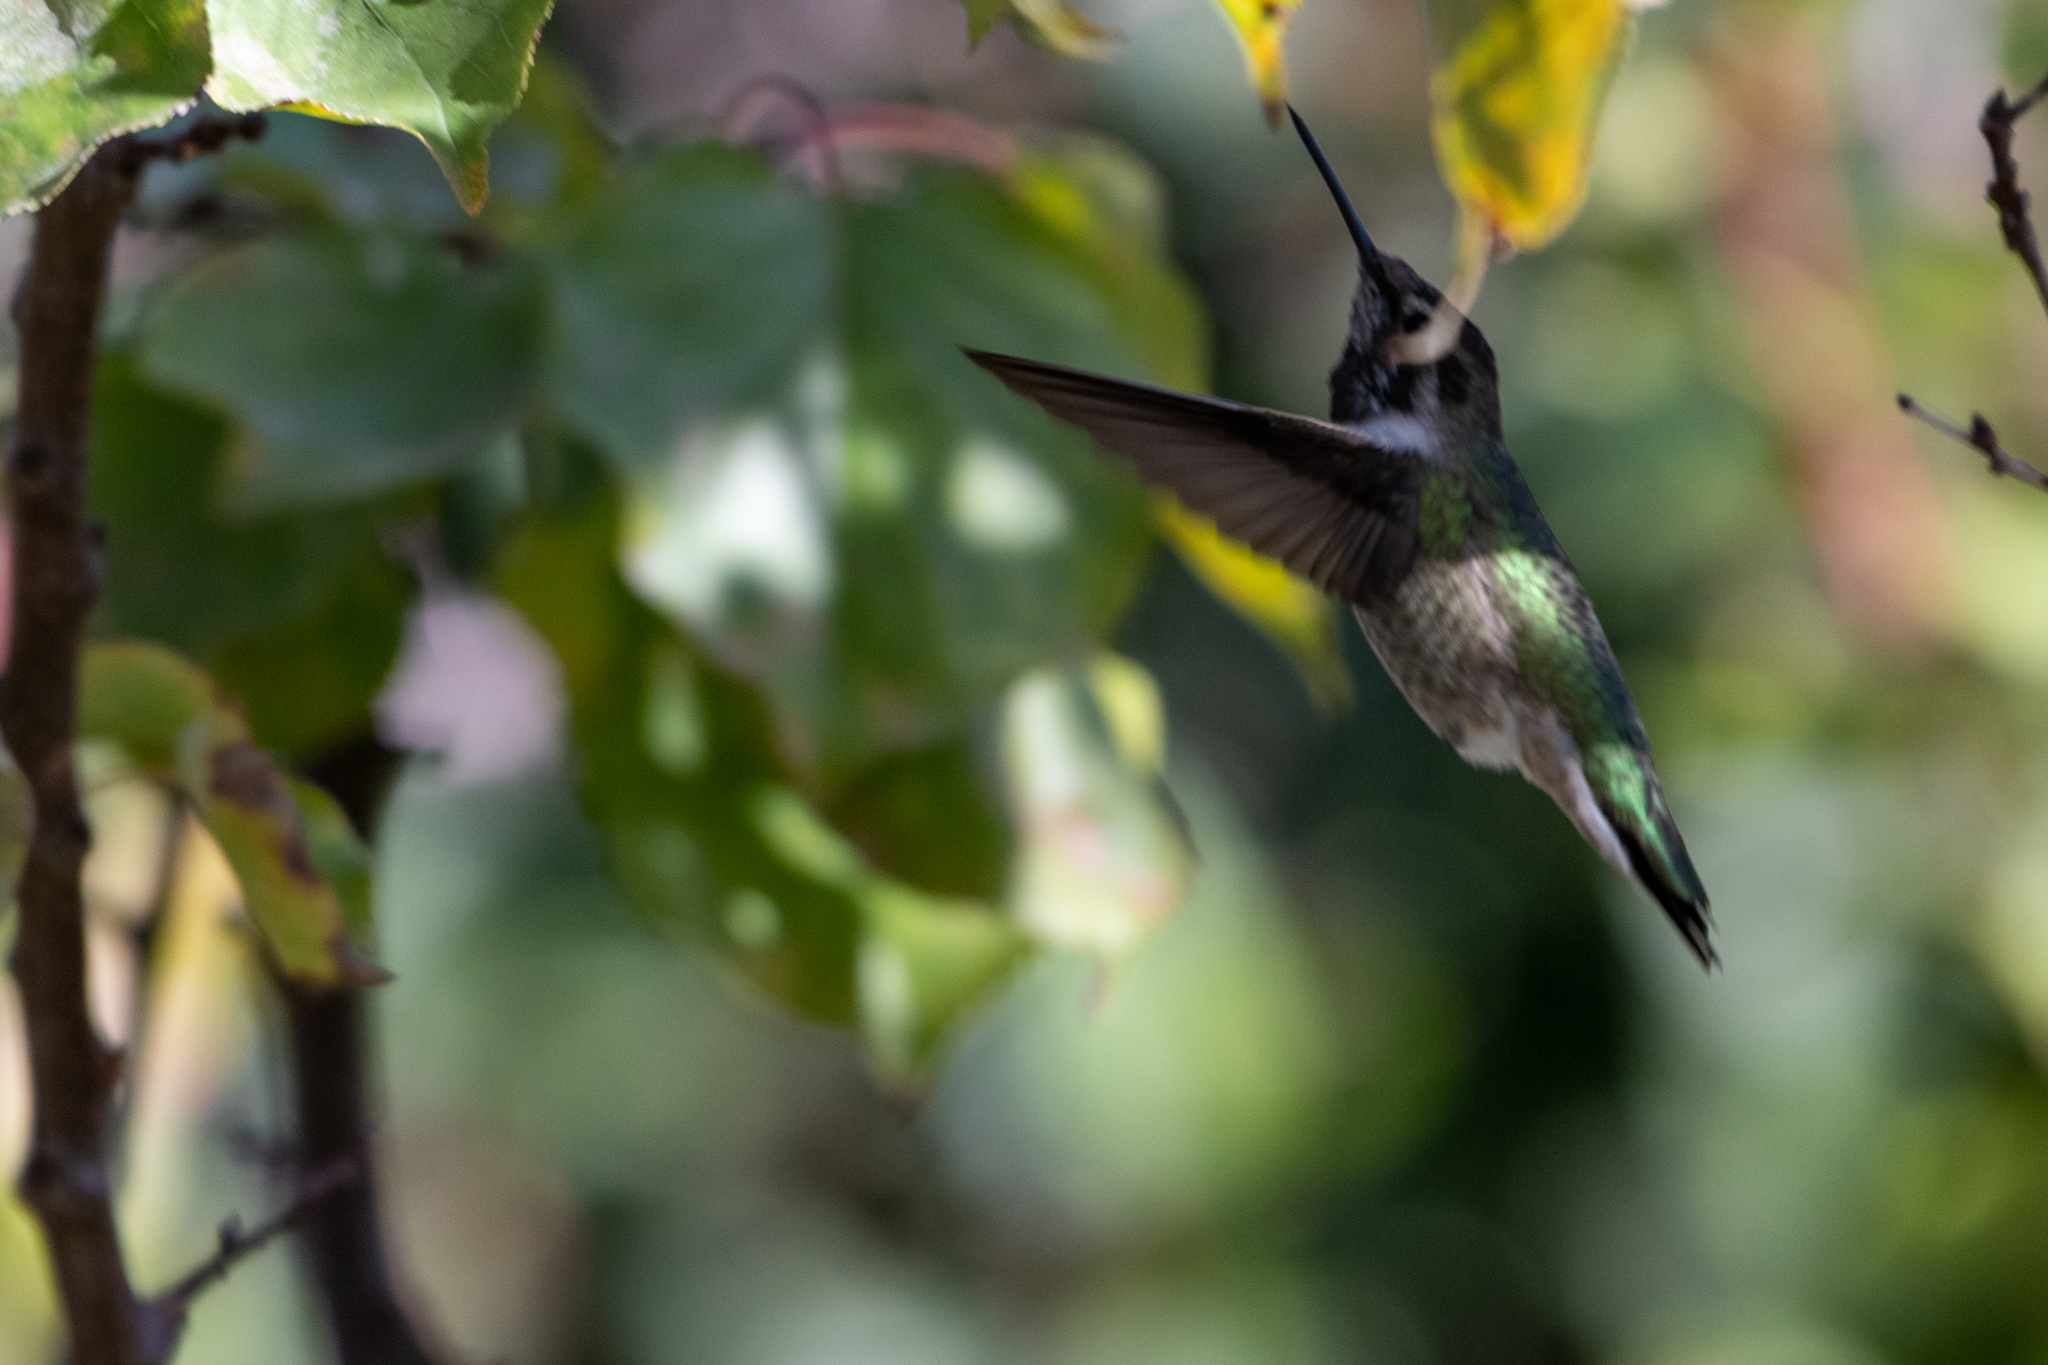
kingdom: Animalia
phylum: Chordata
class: Aves
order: Apodiformes
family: Trochilidae
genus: Calypte
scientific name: Calypte anna
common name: Anna's hummingbird
